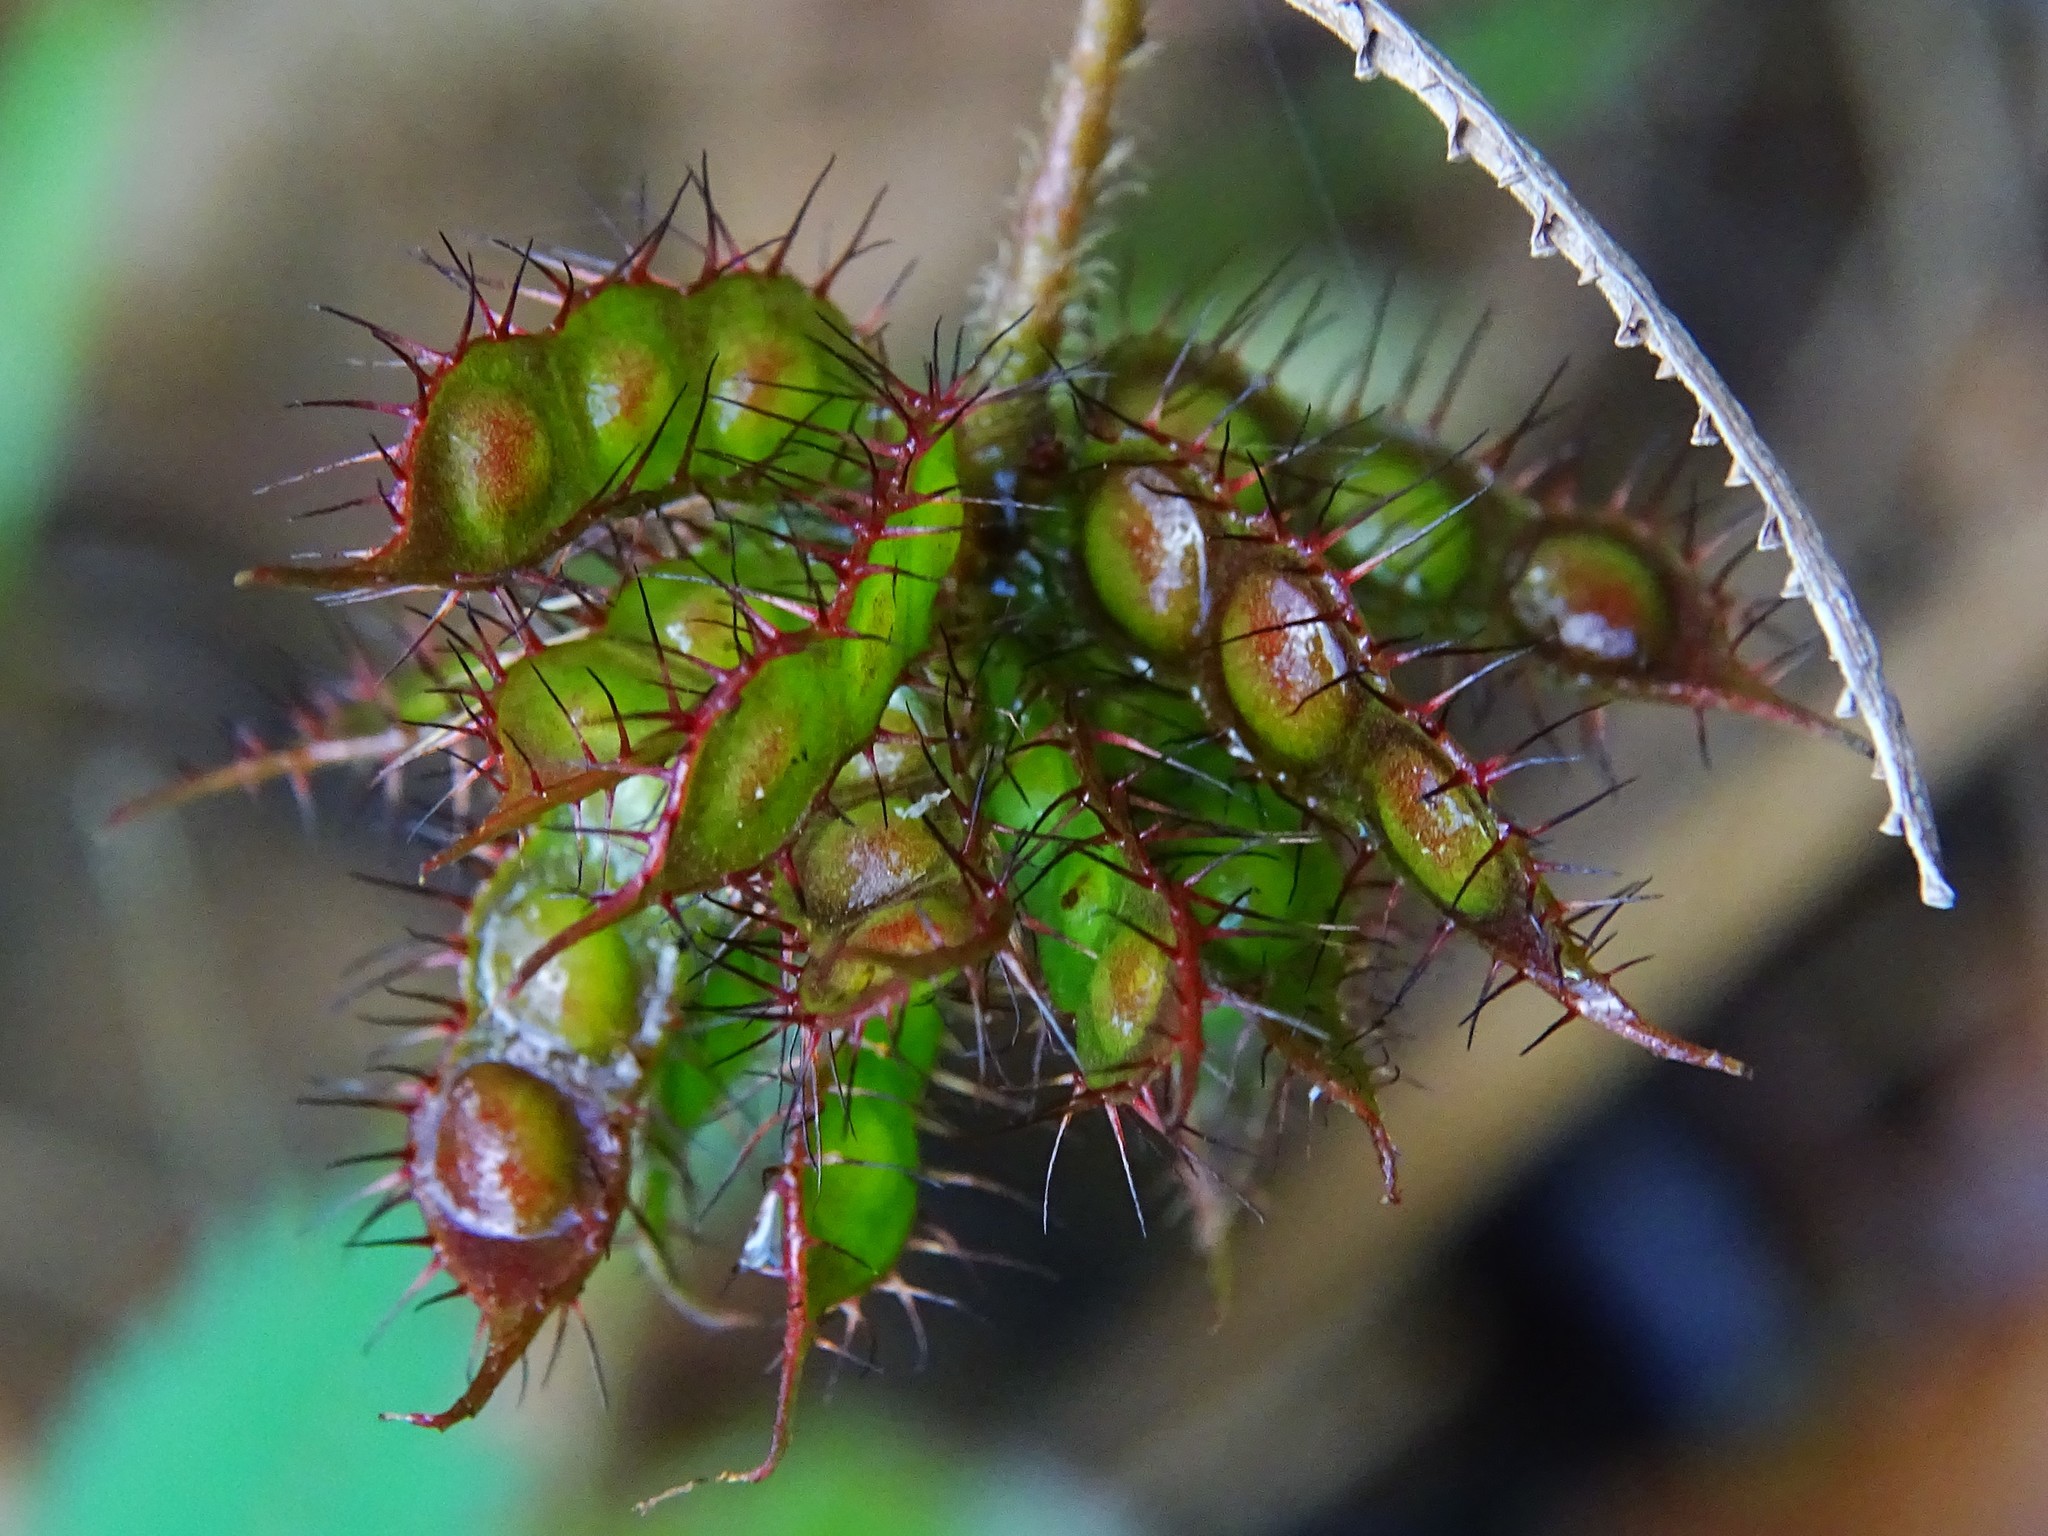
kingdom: Plantae
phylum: Tracheophyta
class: Magnoliopsida
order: Fabales
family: Fabaceae
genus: Mimosa
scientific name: Mimosa pudica
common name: Sensitive plant
